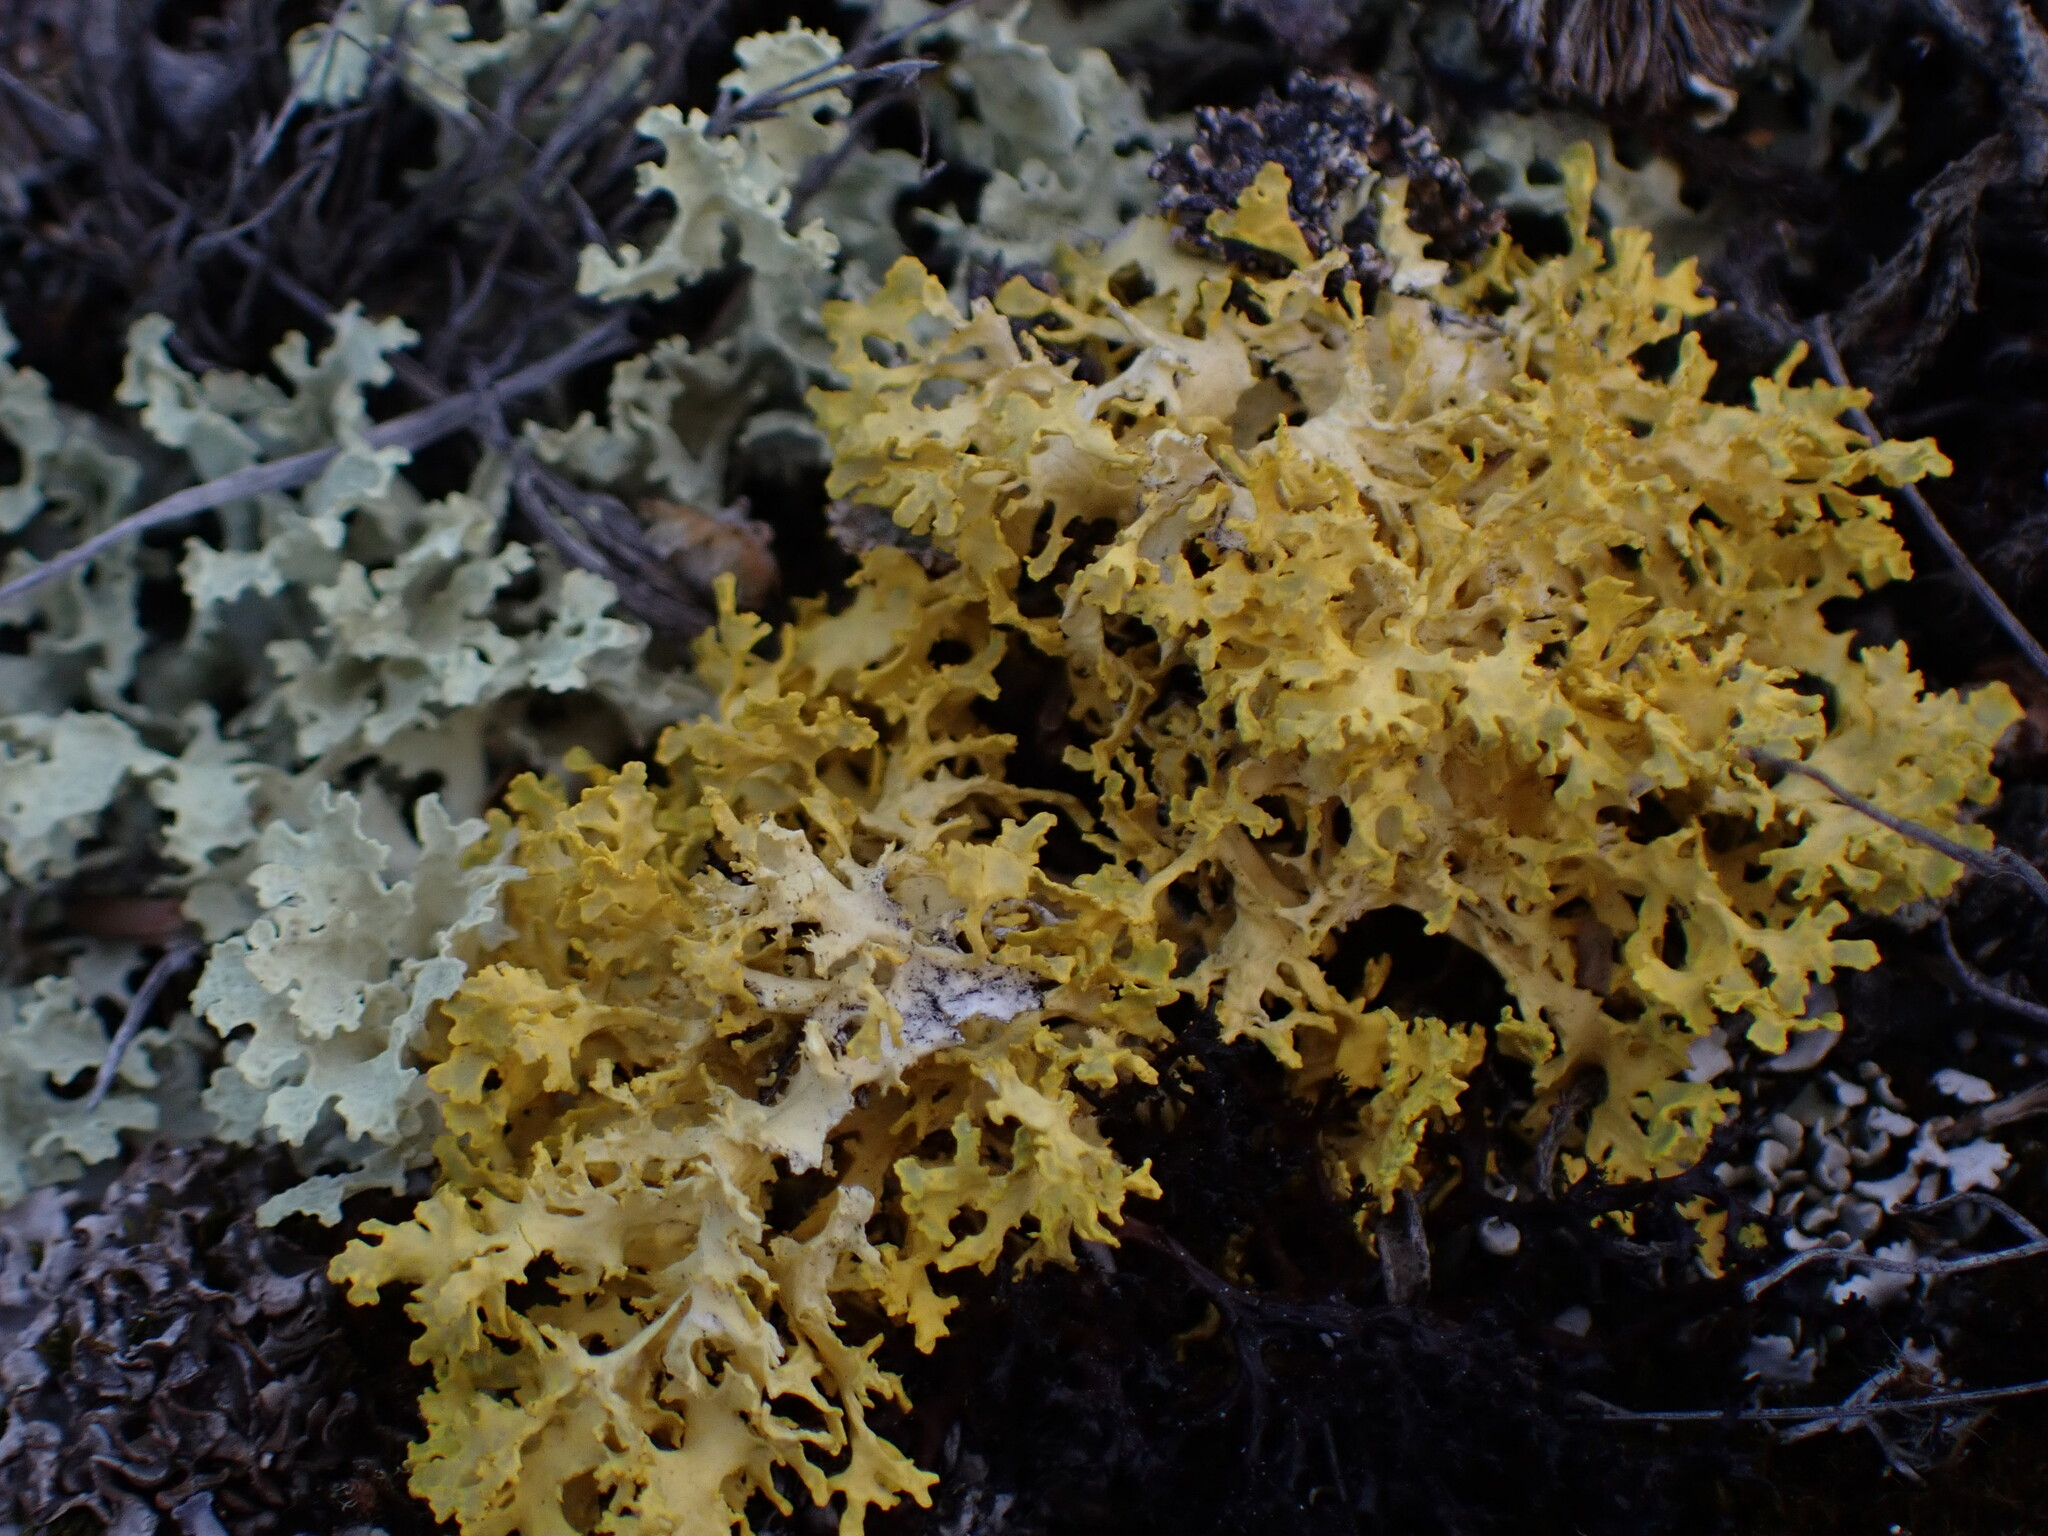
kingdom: Fungi
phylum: Ascomycota
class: Lecanoromycetes
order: Lecanorales
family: Parmeliaceae
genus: Vulpicida
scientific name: Vulpicida juniperinus
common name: Yellow lichen
